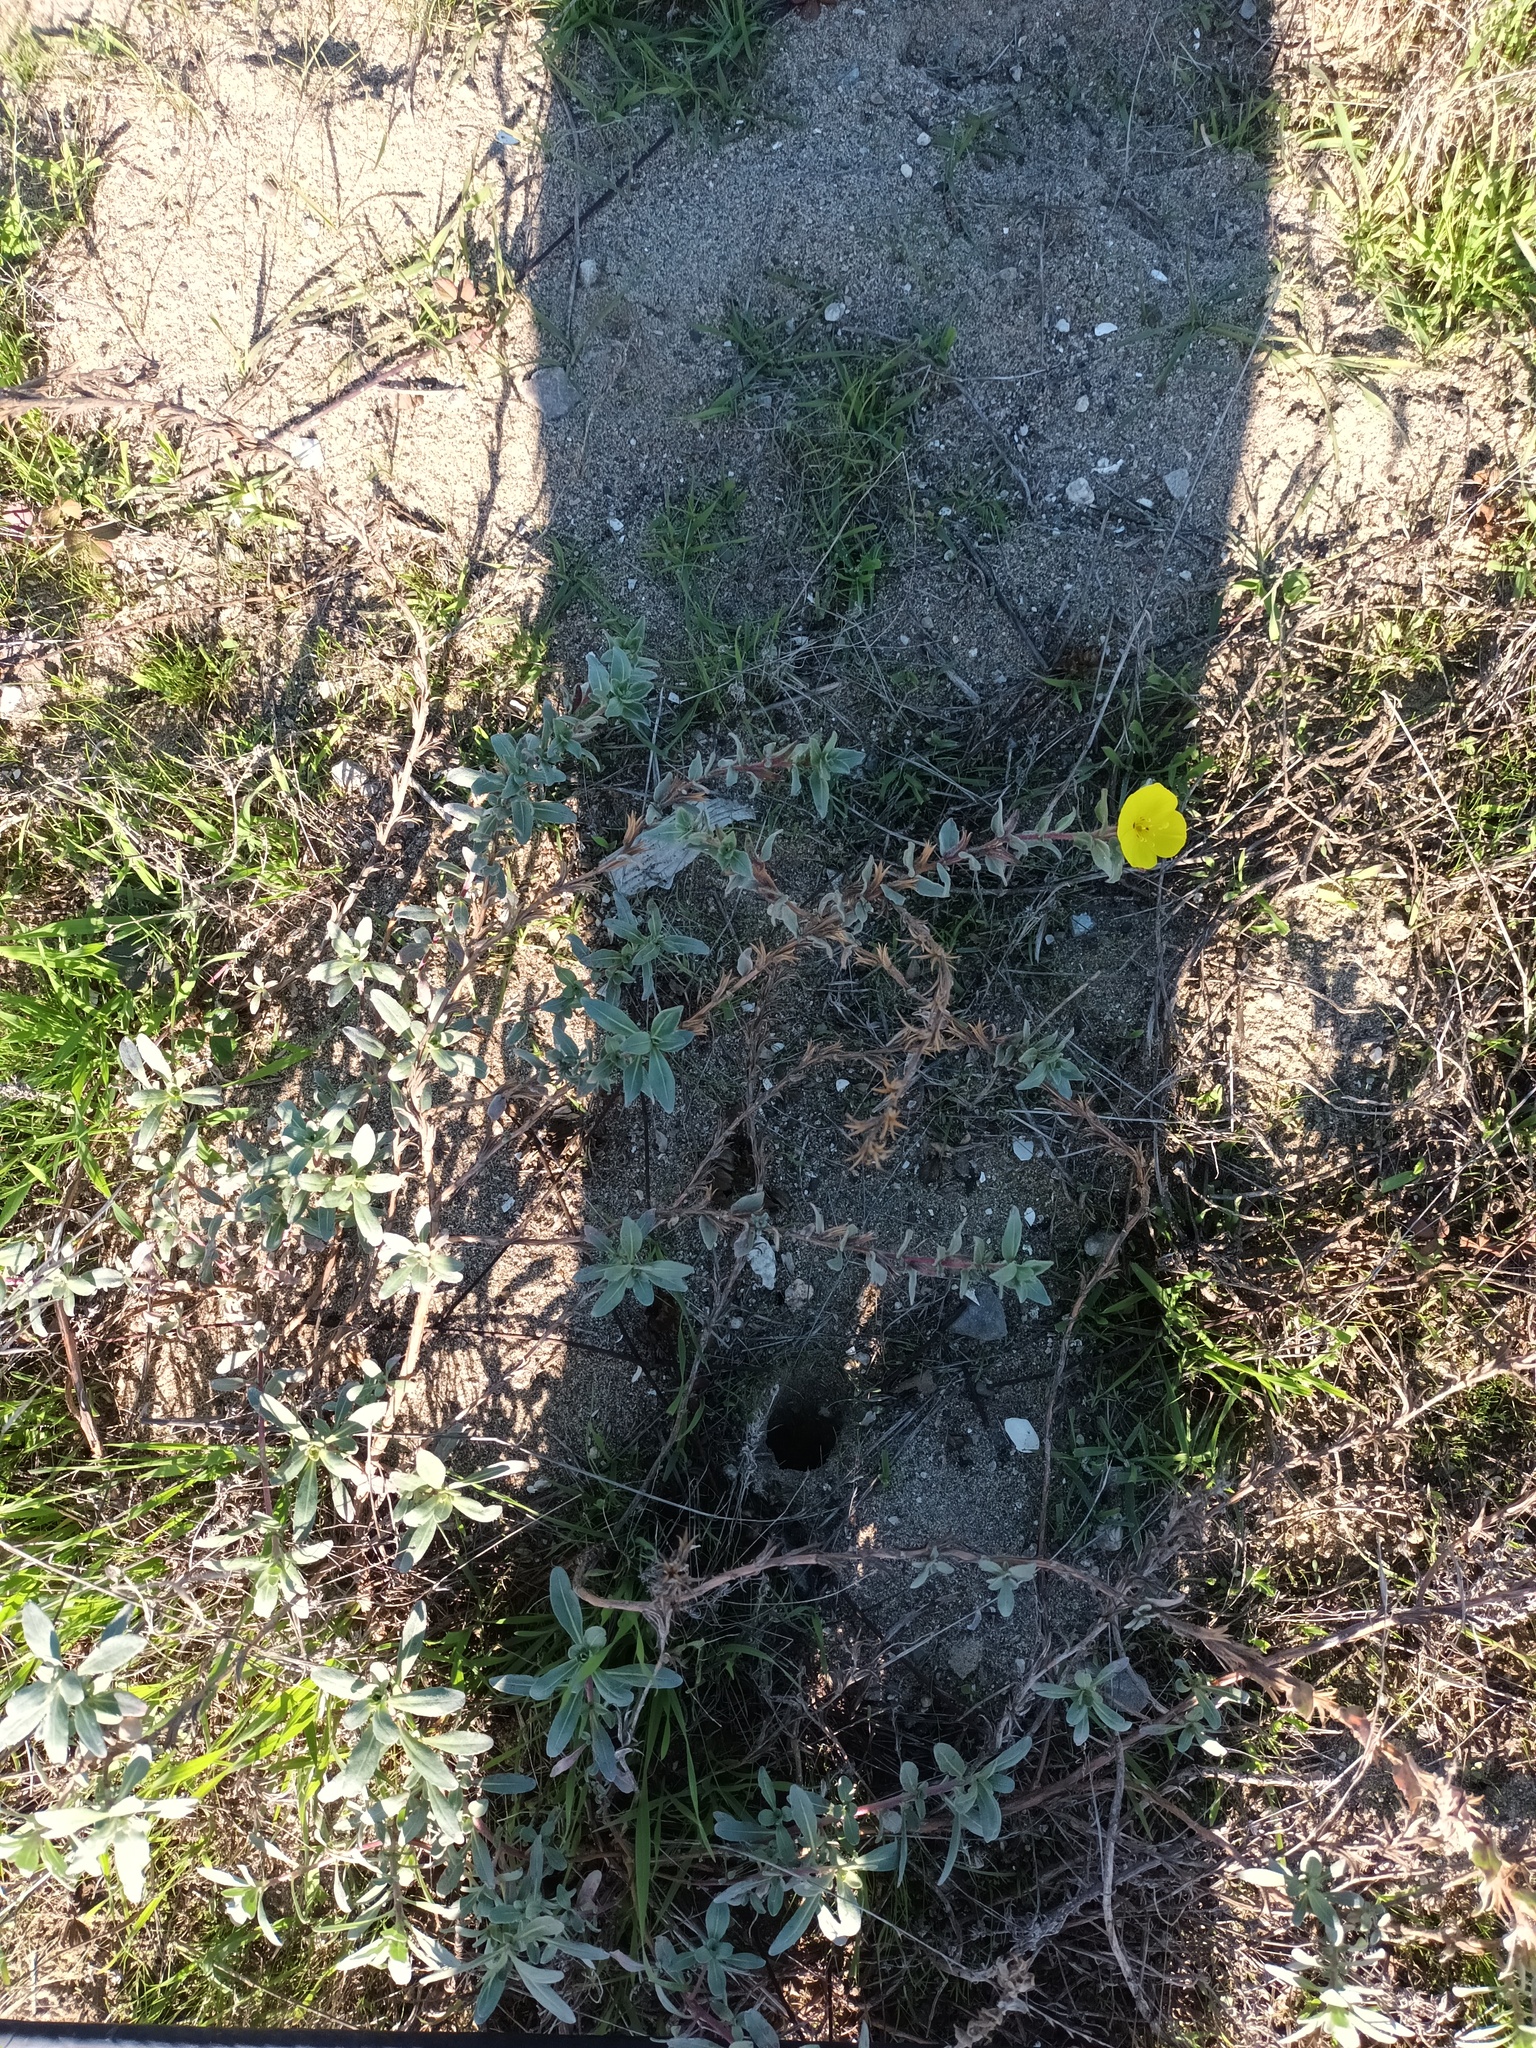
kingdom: Plantae
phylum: Tracheophyta
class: Magnoliopsida
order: Myrtales
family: Onagraceae
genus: Camissoniopsis
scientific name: Camissoniopsis cheiranthifolia
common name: Beach suncup
